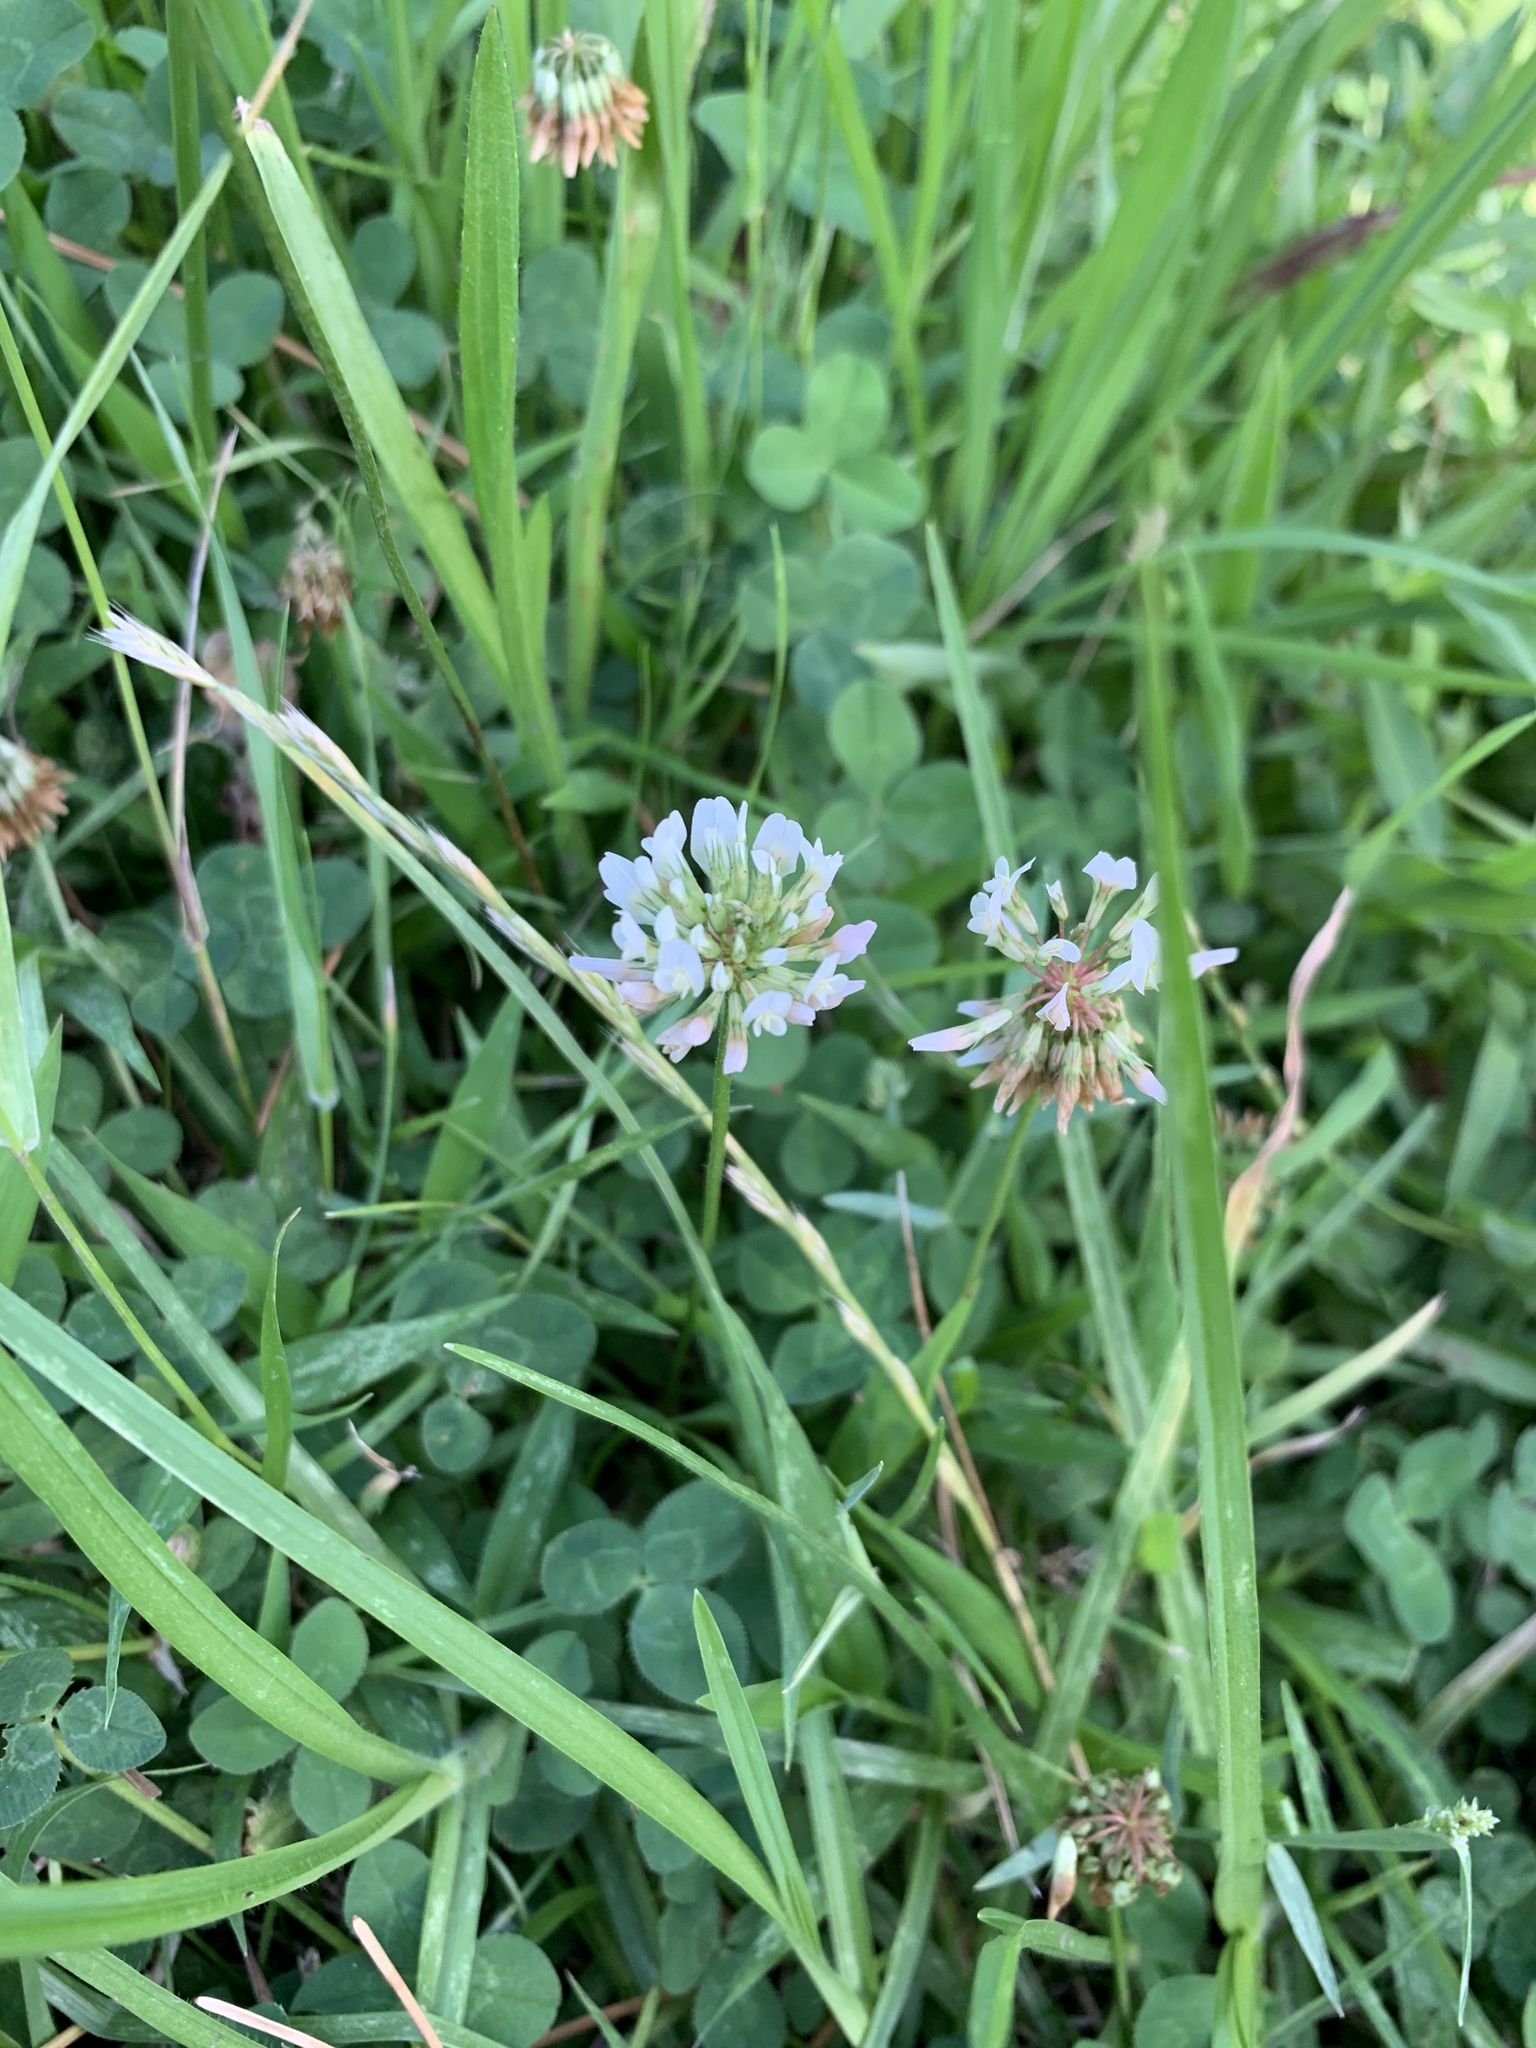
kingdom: Plantae
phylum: Tracheophyta
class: Magnoliopsida
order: Fabales
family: Fabaceae
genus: Trifolium
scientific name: Trifolium repens
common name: White clover
